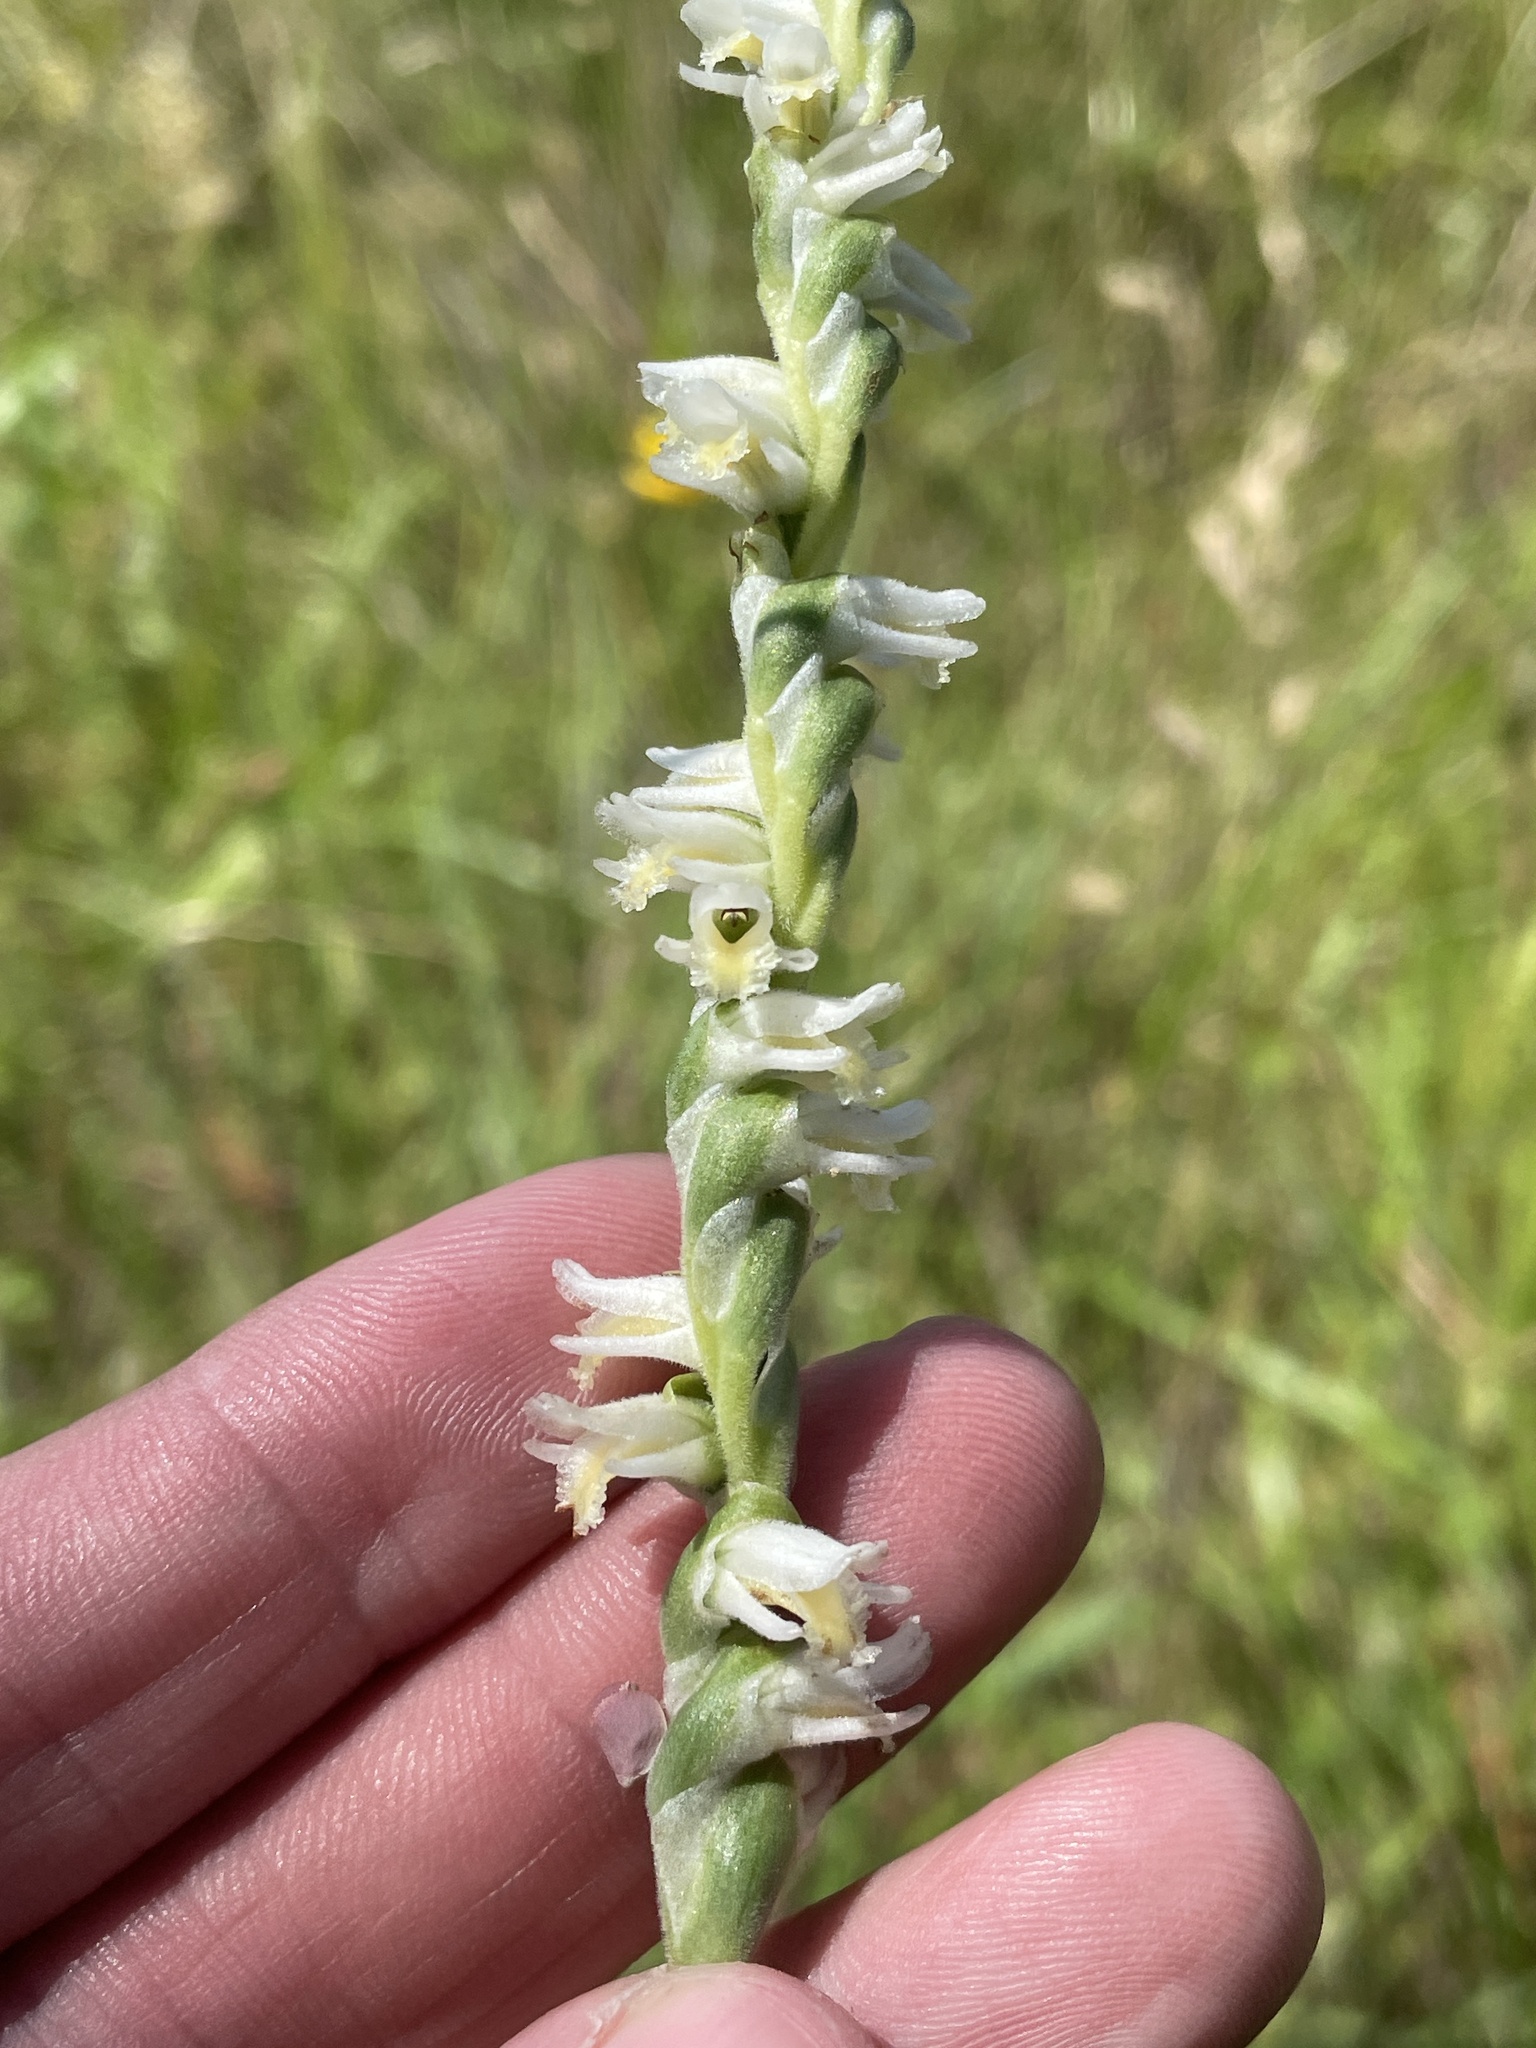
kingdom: Plantae
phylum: Tracheophyta
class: Liliopsida
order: Asparagales
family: Orchidaceae
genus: Spiranthes
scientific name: Spiranthes vernalis
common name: Spring ladies'-tresses
